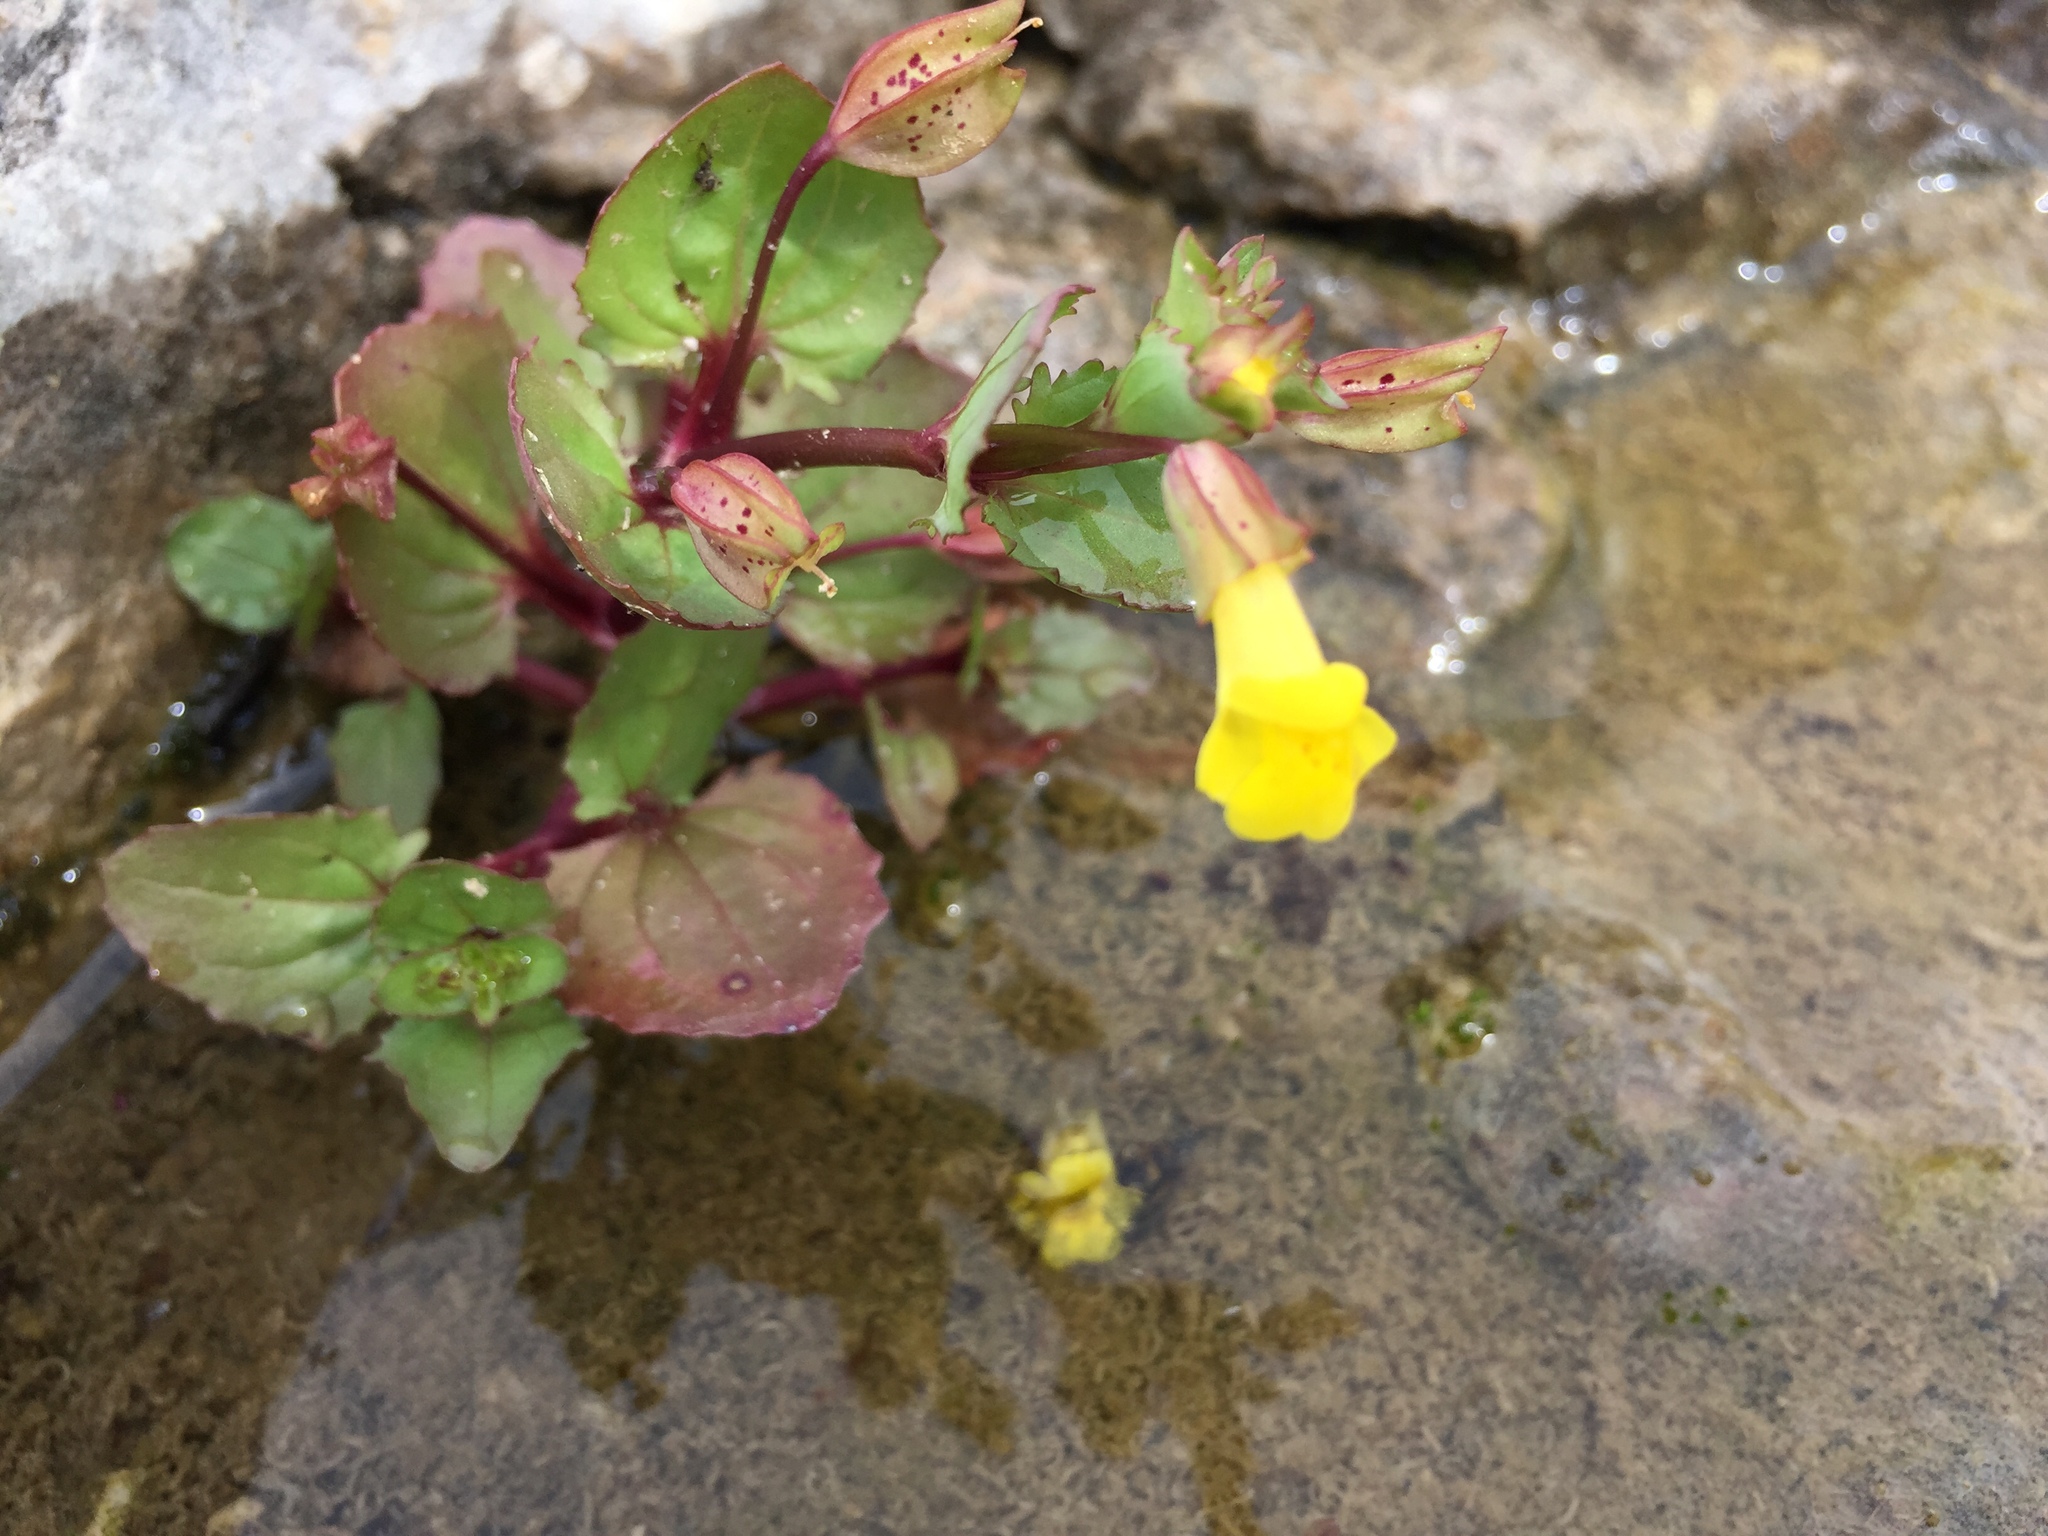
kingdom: Plantae
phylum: Tracheophyta
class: Magnoliopsida
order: Lamiales
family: Phrymaceae
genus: Erythranthe
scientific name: Erythranthe inamoena
